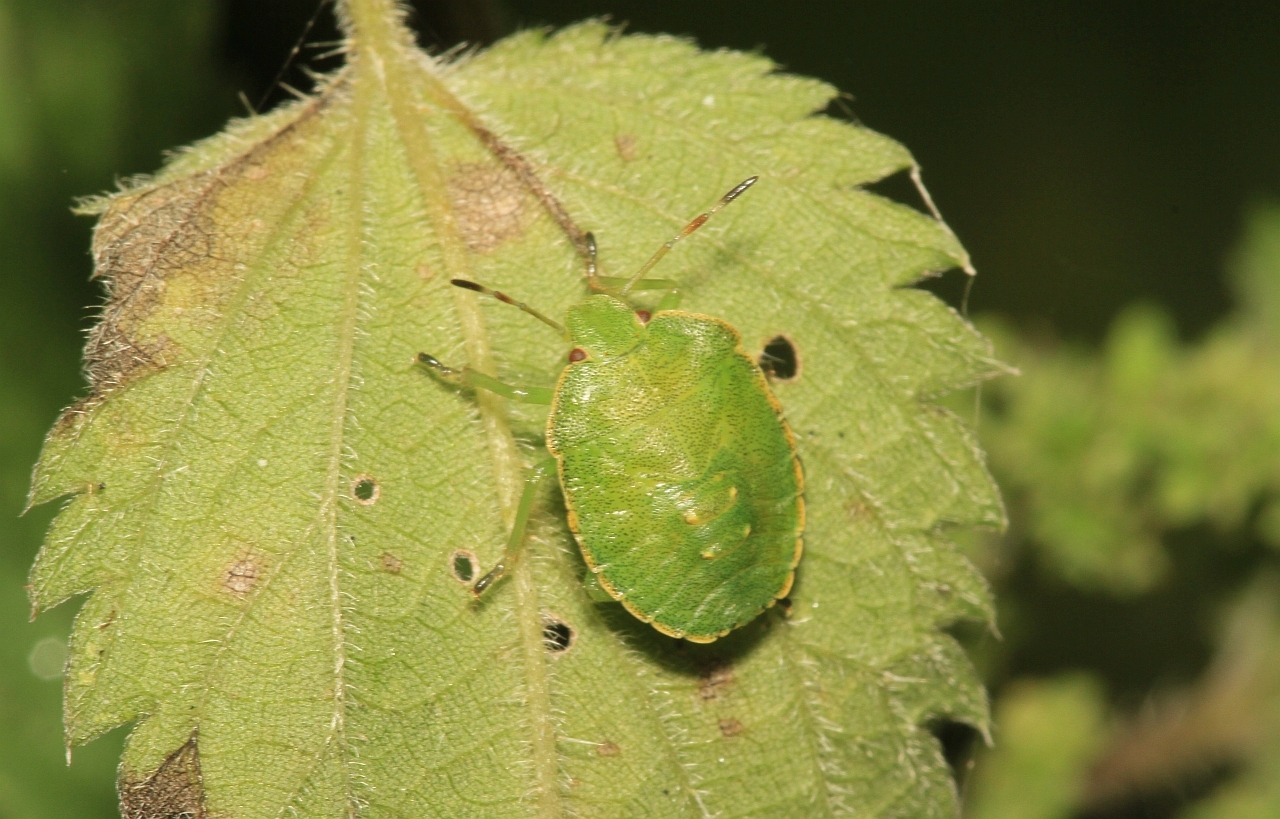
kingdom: Animalia
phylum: Arthropoda
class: Insecta
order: Hemiptera
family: Pentatomidae
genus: Palomena
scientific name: Palomena prasina
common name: Green shieldbug
